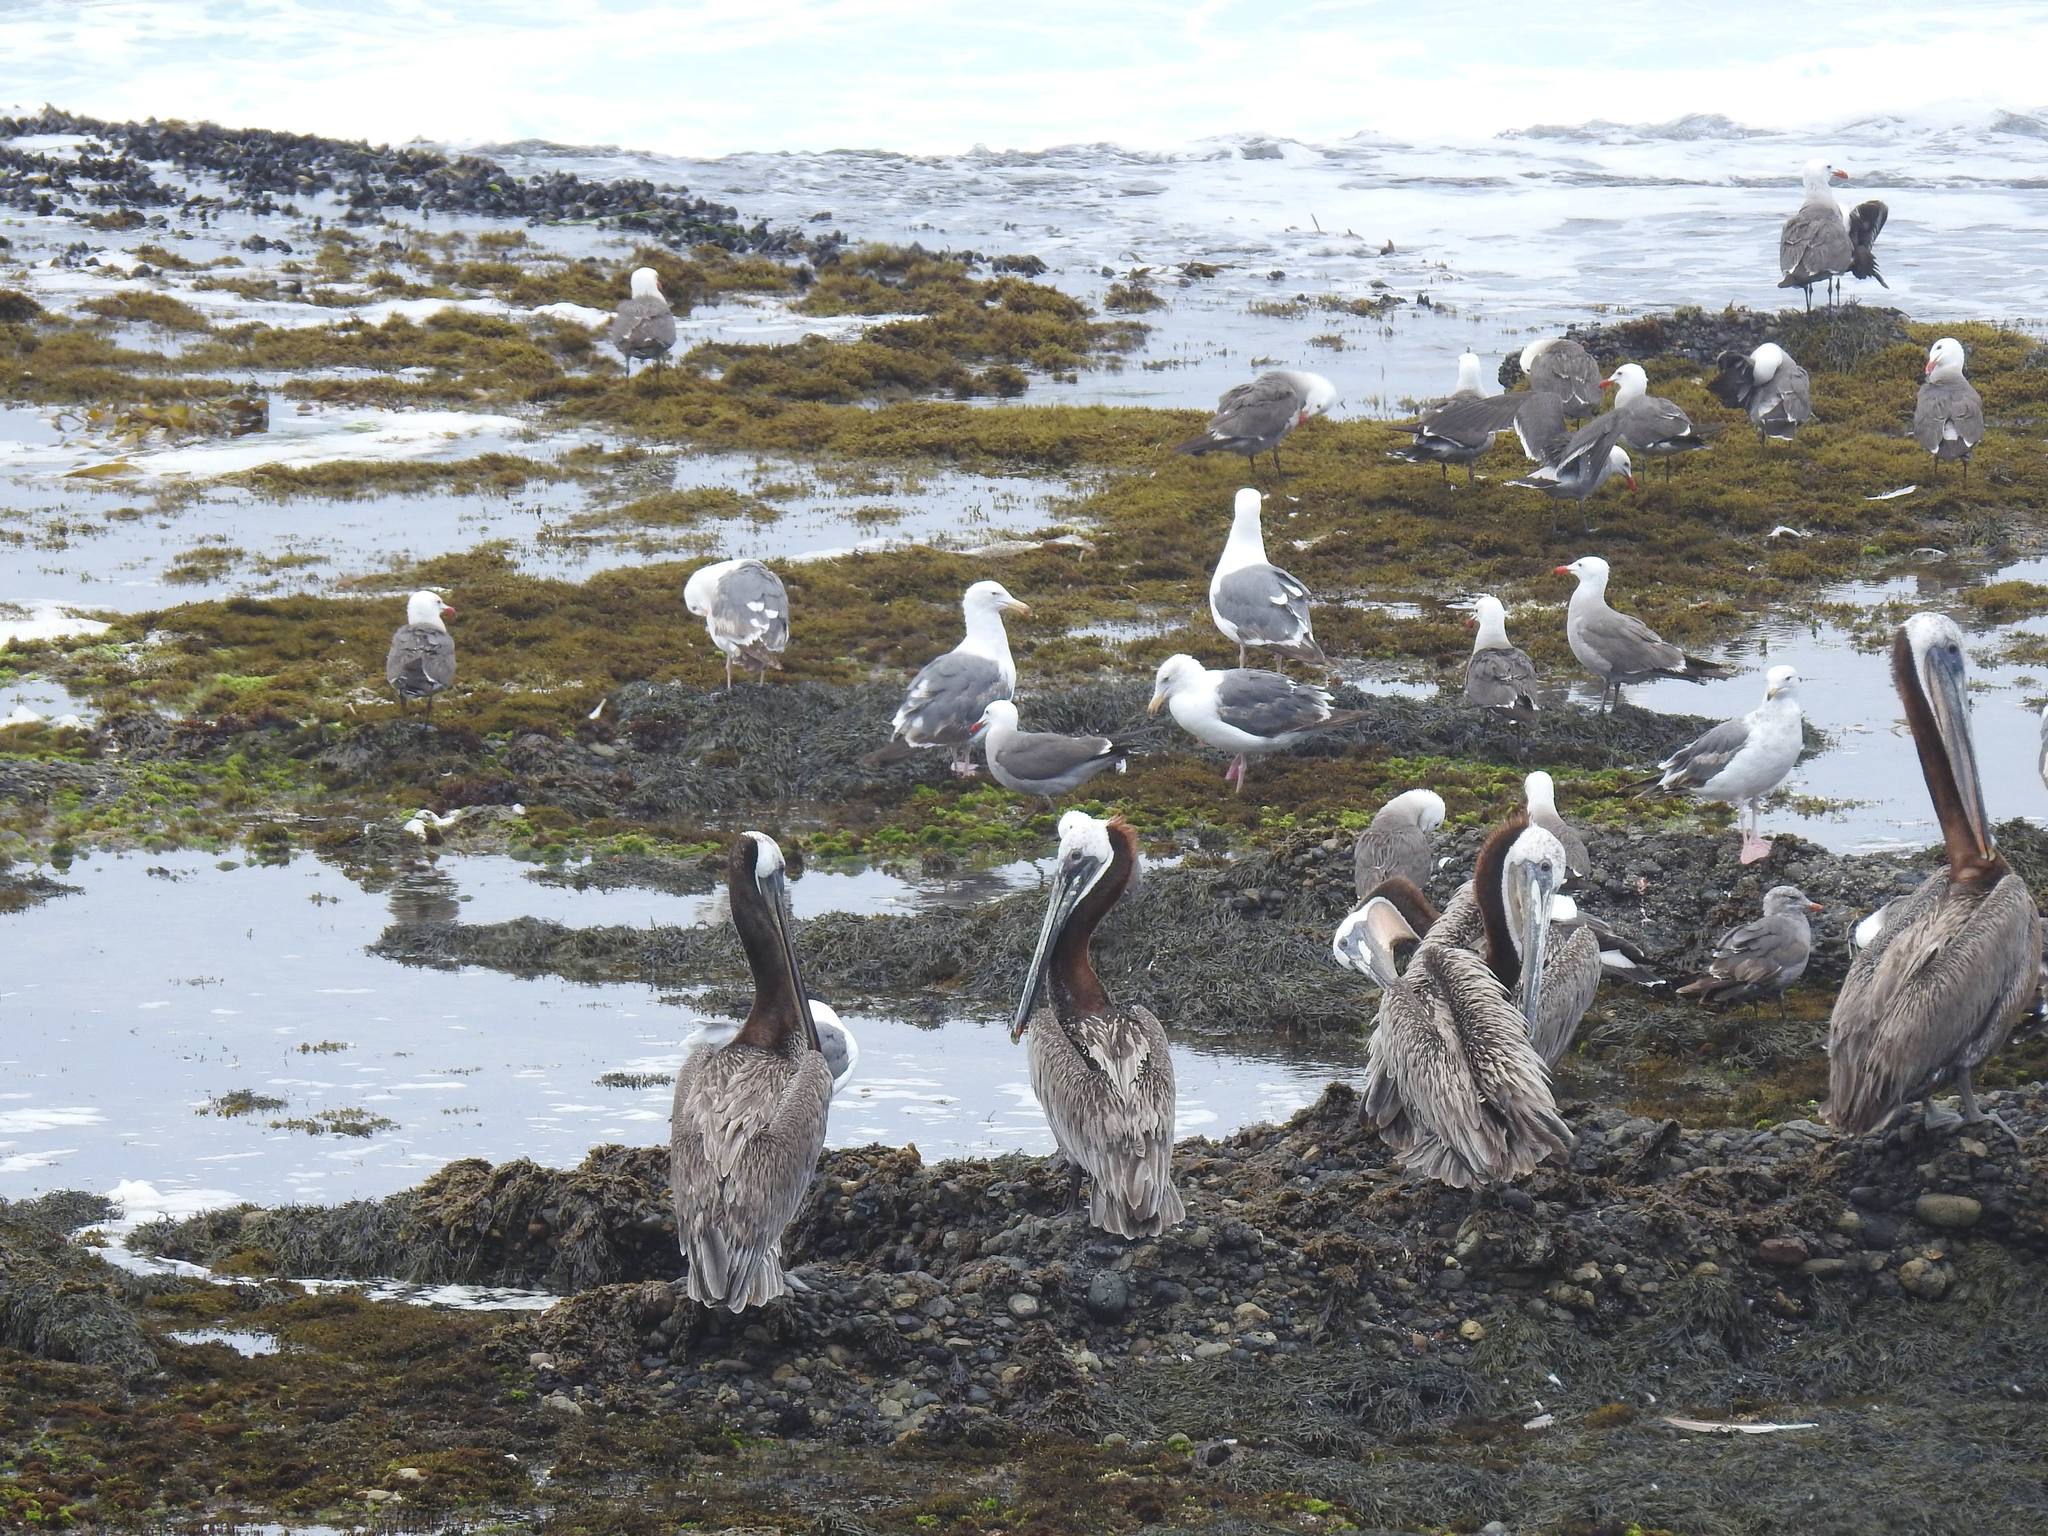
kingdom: Animalia
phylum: Chordata
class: Aves
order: Pelecaniformes
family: Pelecanidae
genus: Pelecanus
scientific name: Pelecanus occidentalis
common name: Brown pelican
